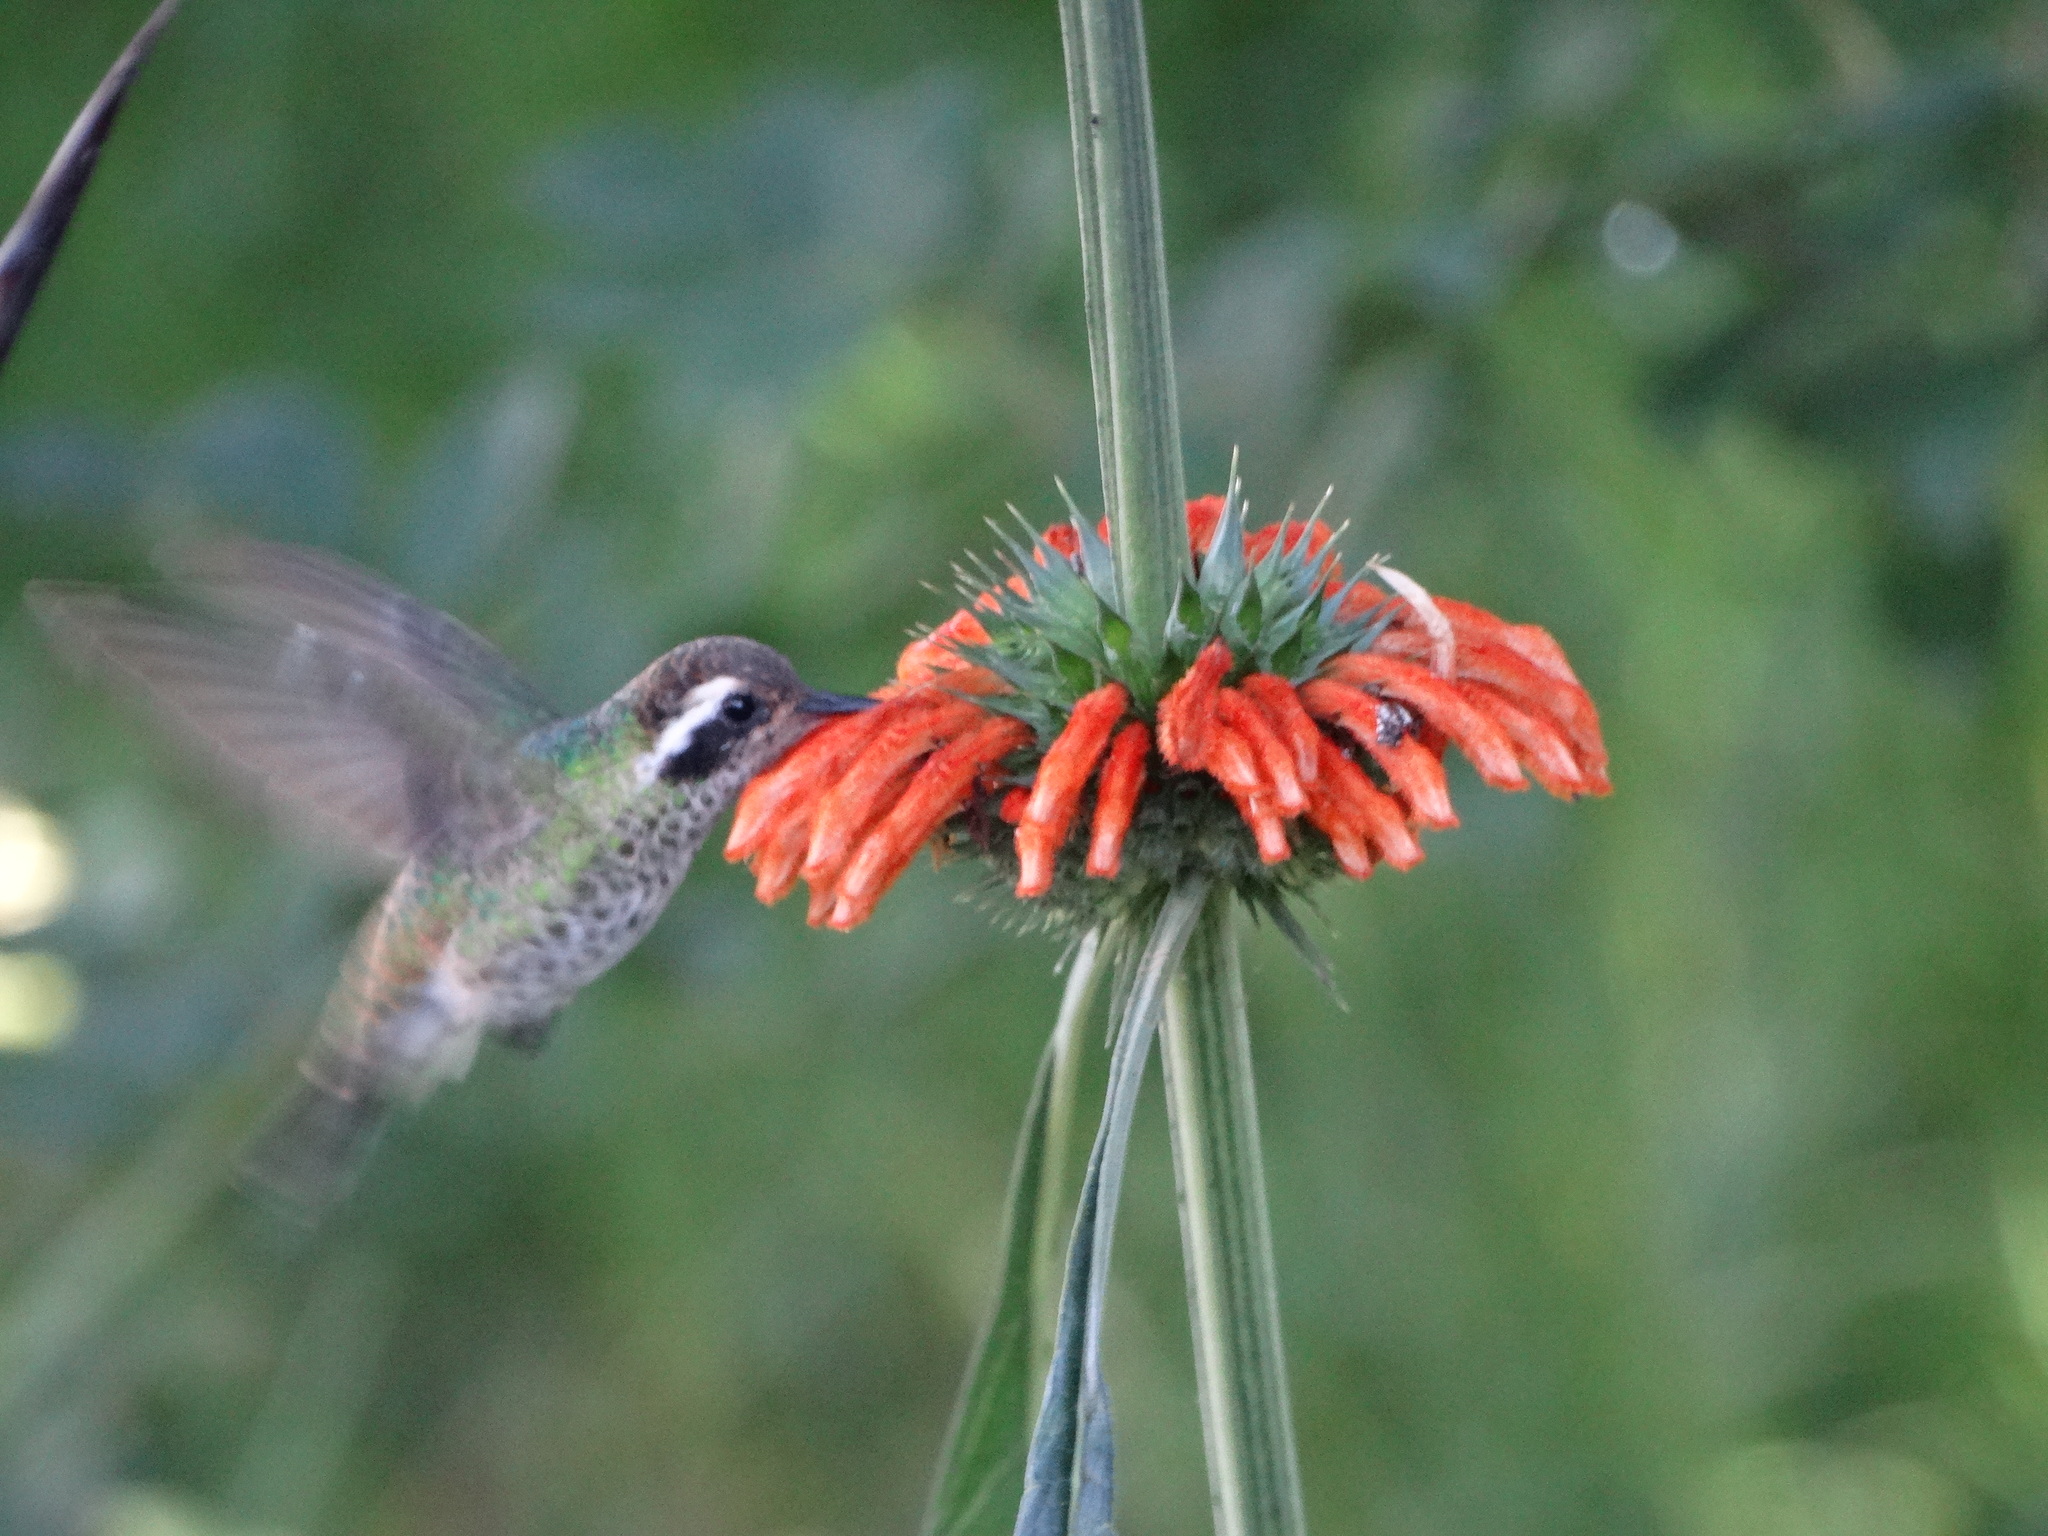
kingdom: Animalia
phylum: Chordata
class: Aves
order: Apodiformes
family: Trochilidae
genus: Basilinna
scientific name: Basilinna leucotis
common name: White-eared hummingbird
